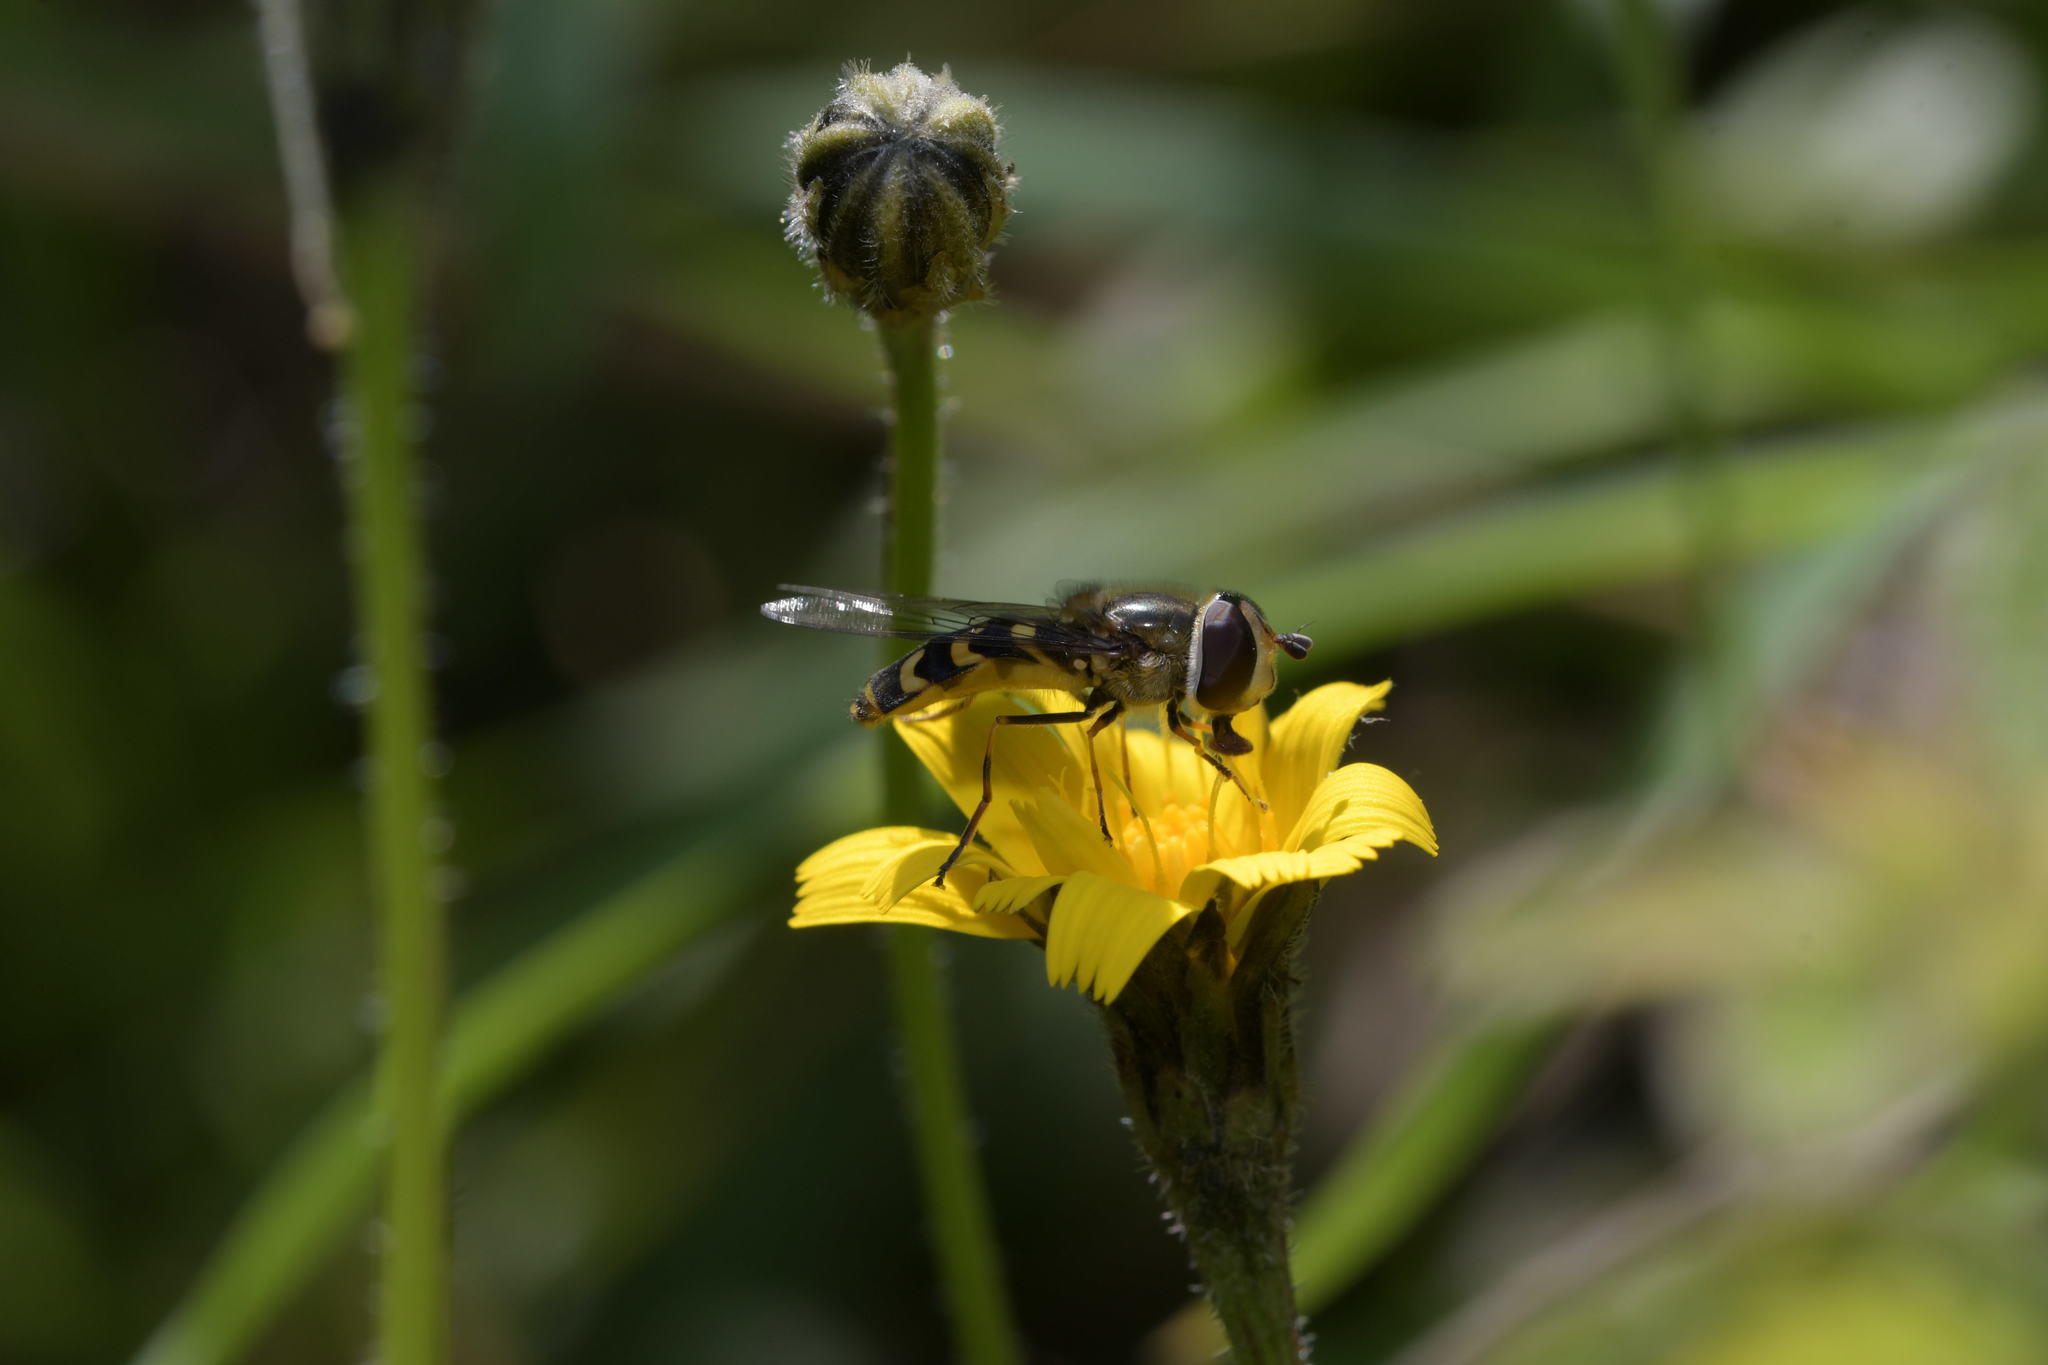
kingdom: Animalia
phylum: Arthropoda
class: Insecta
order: Diptera
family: Syrphidae
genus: Scaeva
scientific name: Scaeva dignota
